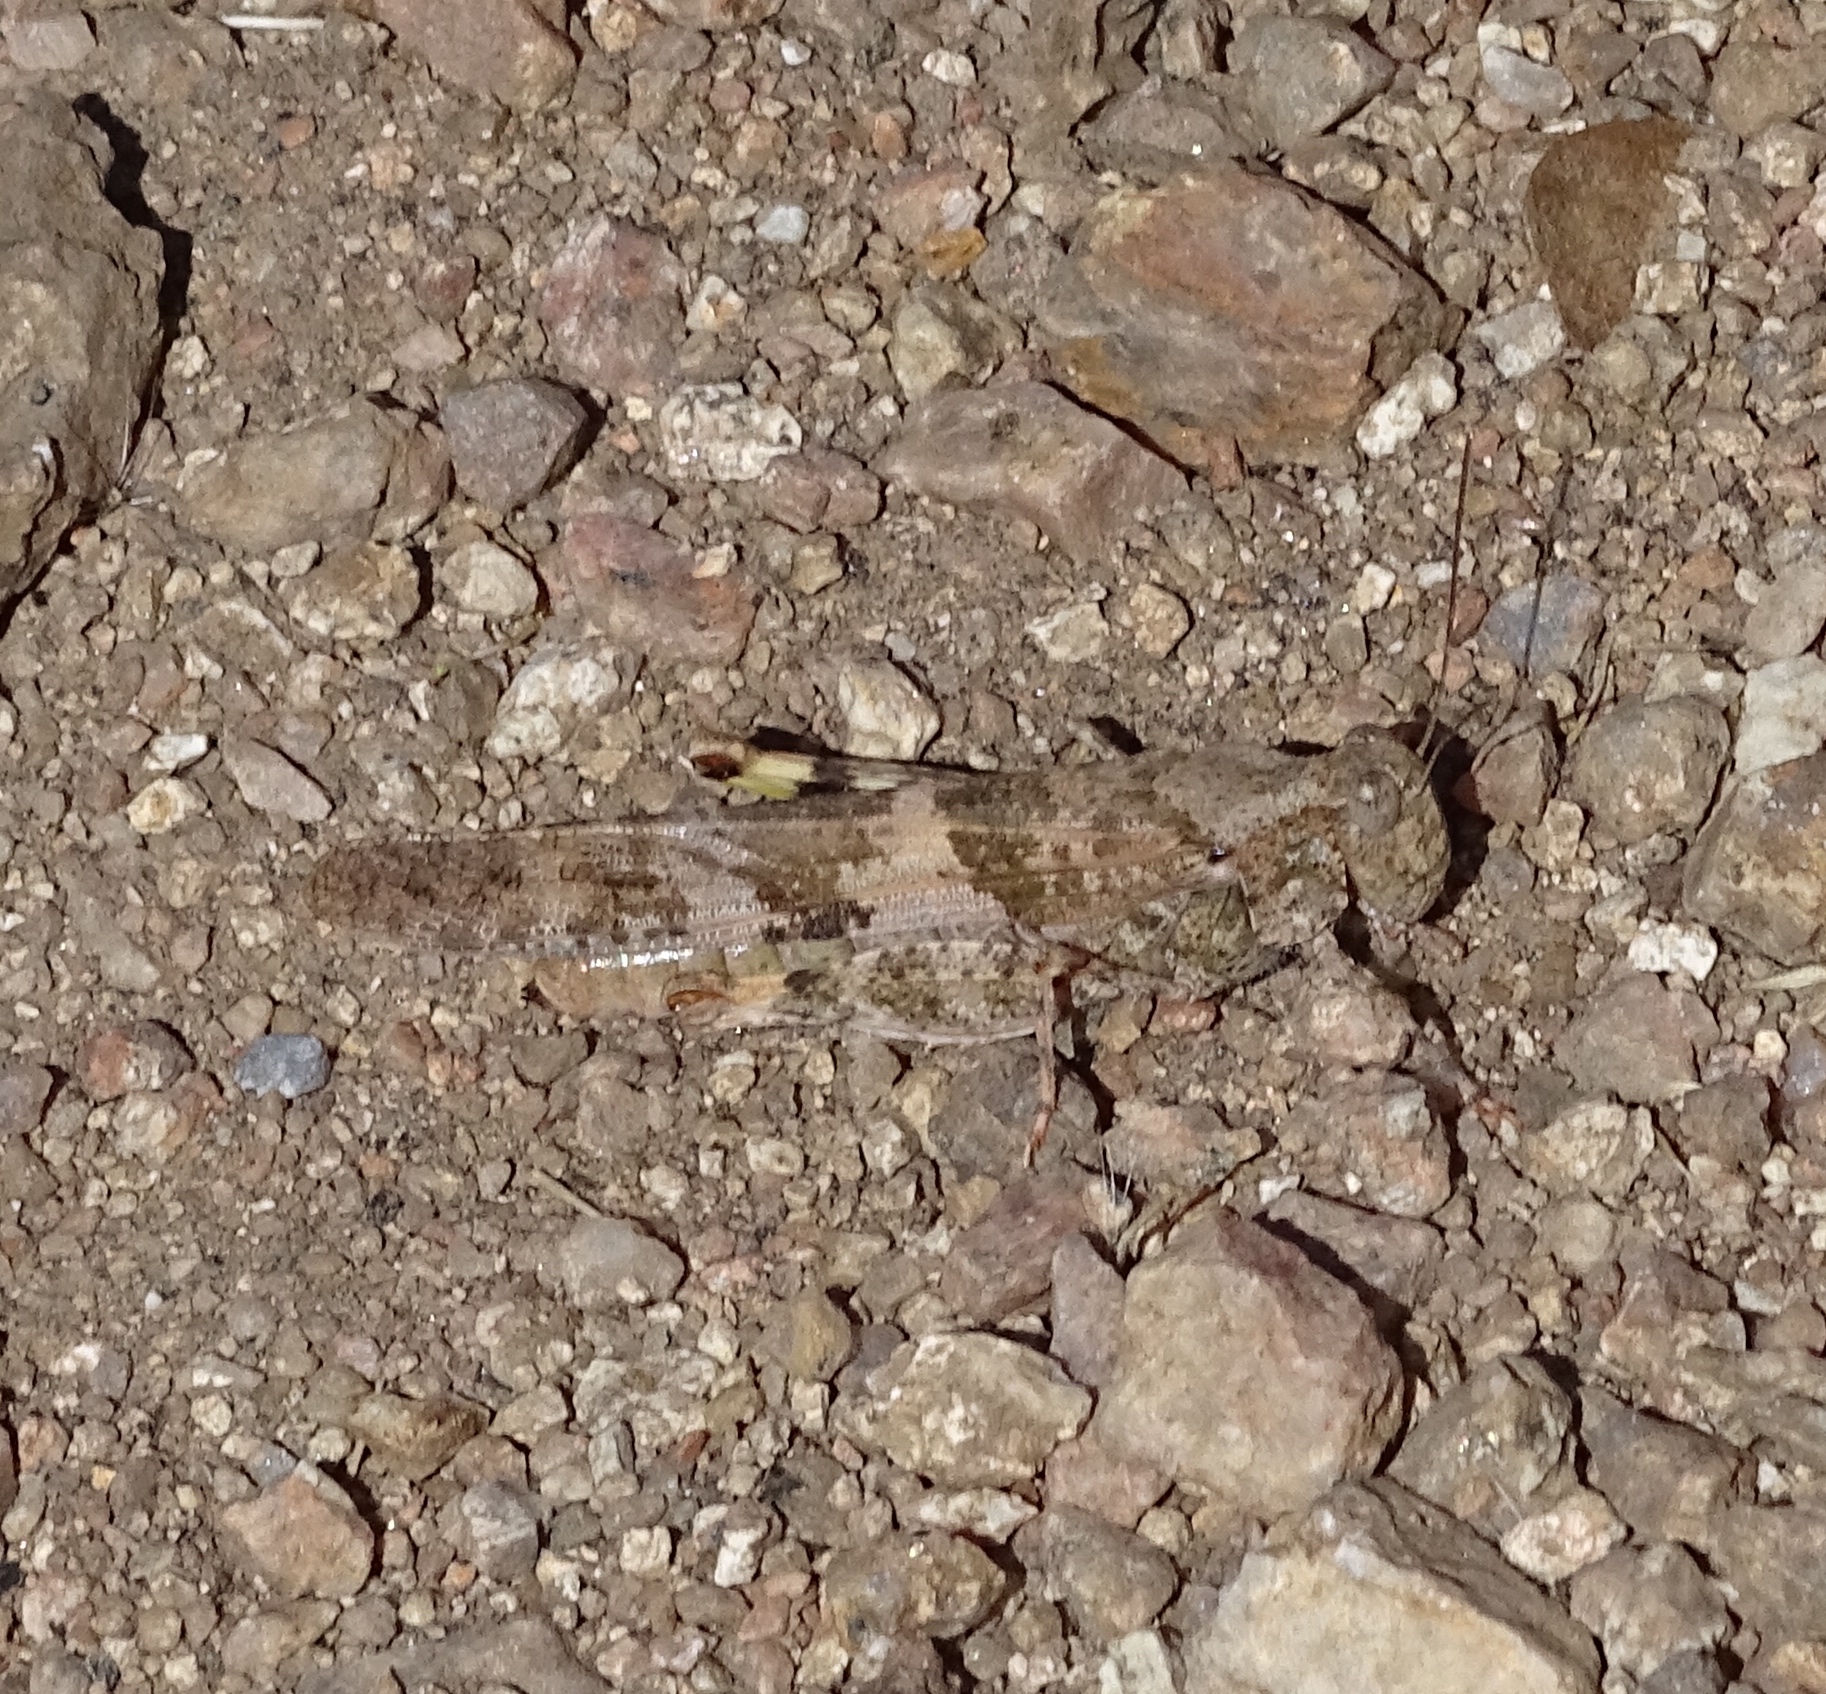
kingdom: Animalia
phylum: Arthropoda
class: Insecta
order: Orthoptera
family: Acrididae
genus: Trimerotropis
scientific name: Trimerotropis pallidipennis
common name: Pallid-winged grasshopper
